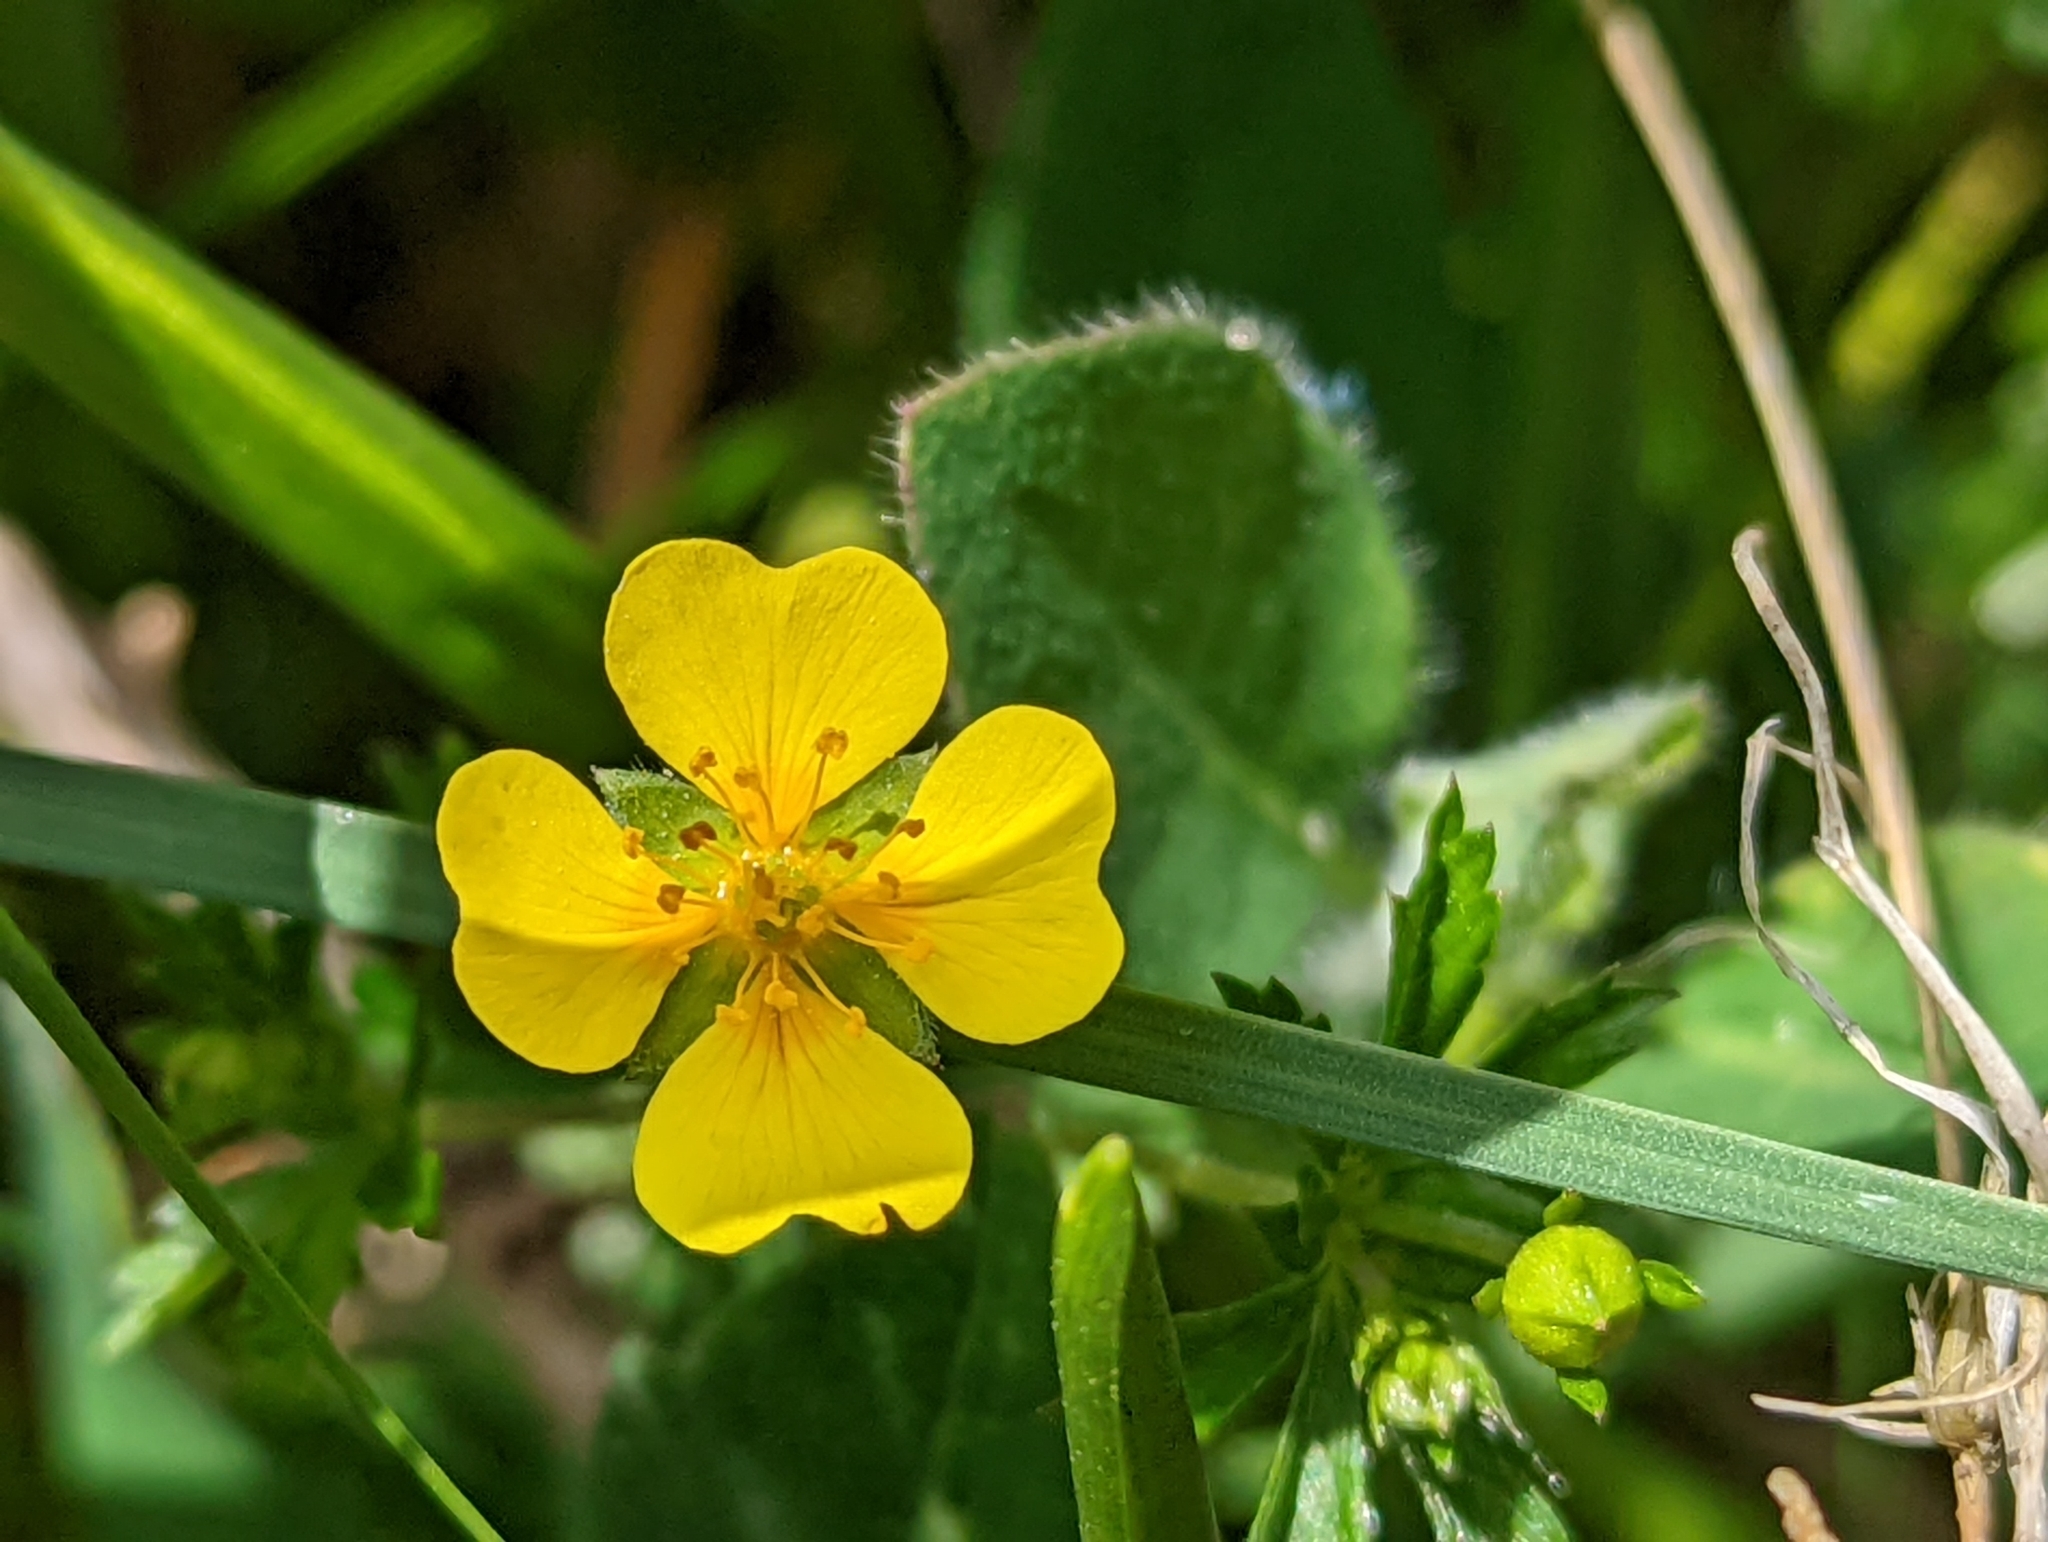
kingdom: Plantae
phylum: Tracheophyta
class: Magnoliopsida
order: Rosales
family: Rosaceae
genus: Potentilla
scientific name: Potentilla erecta
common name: Tormentil
